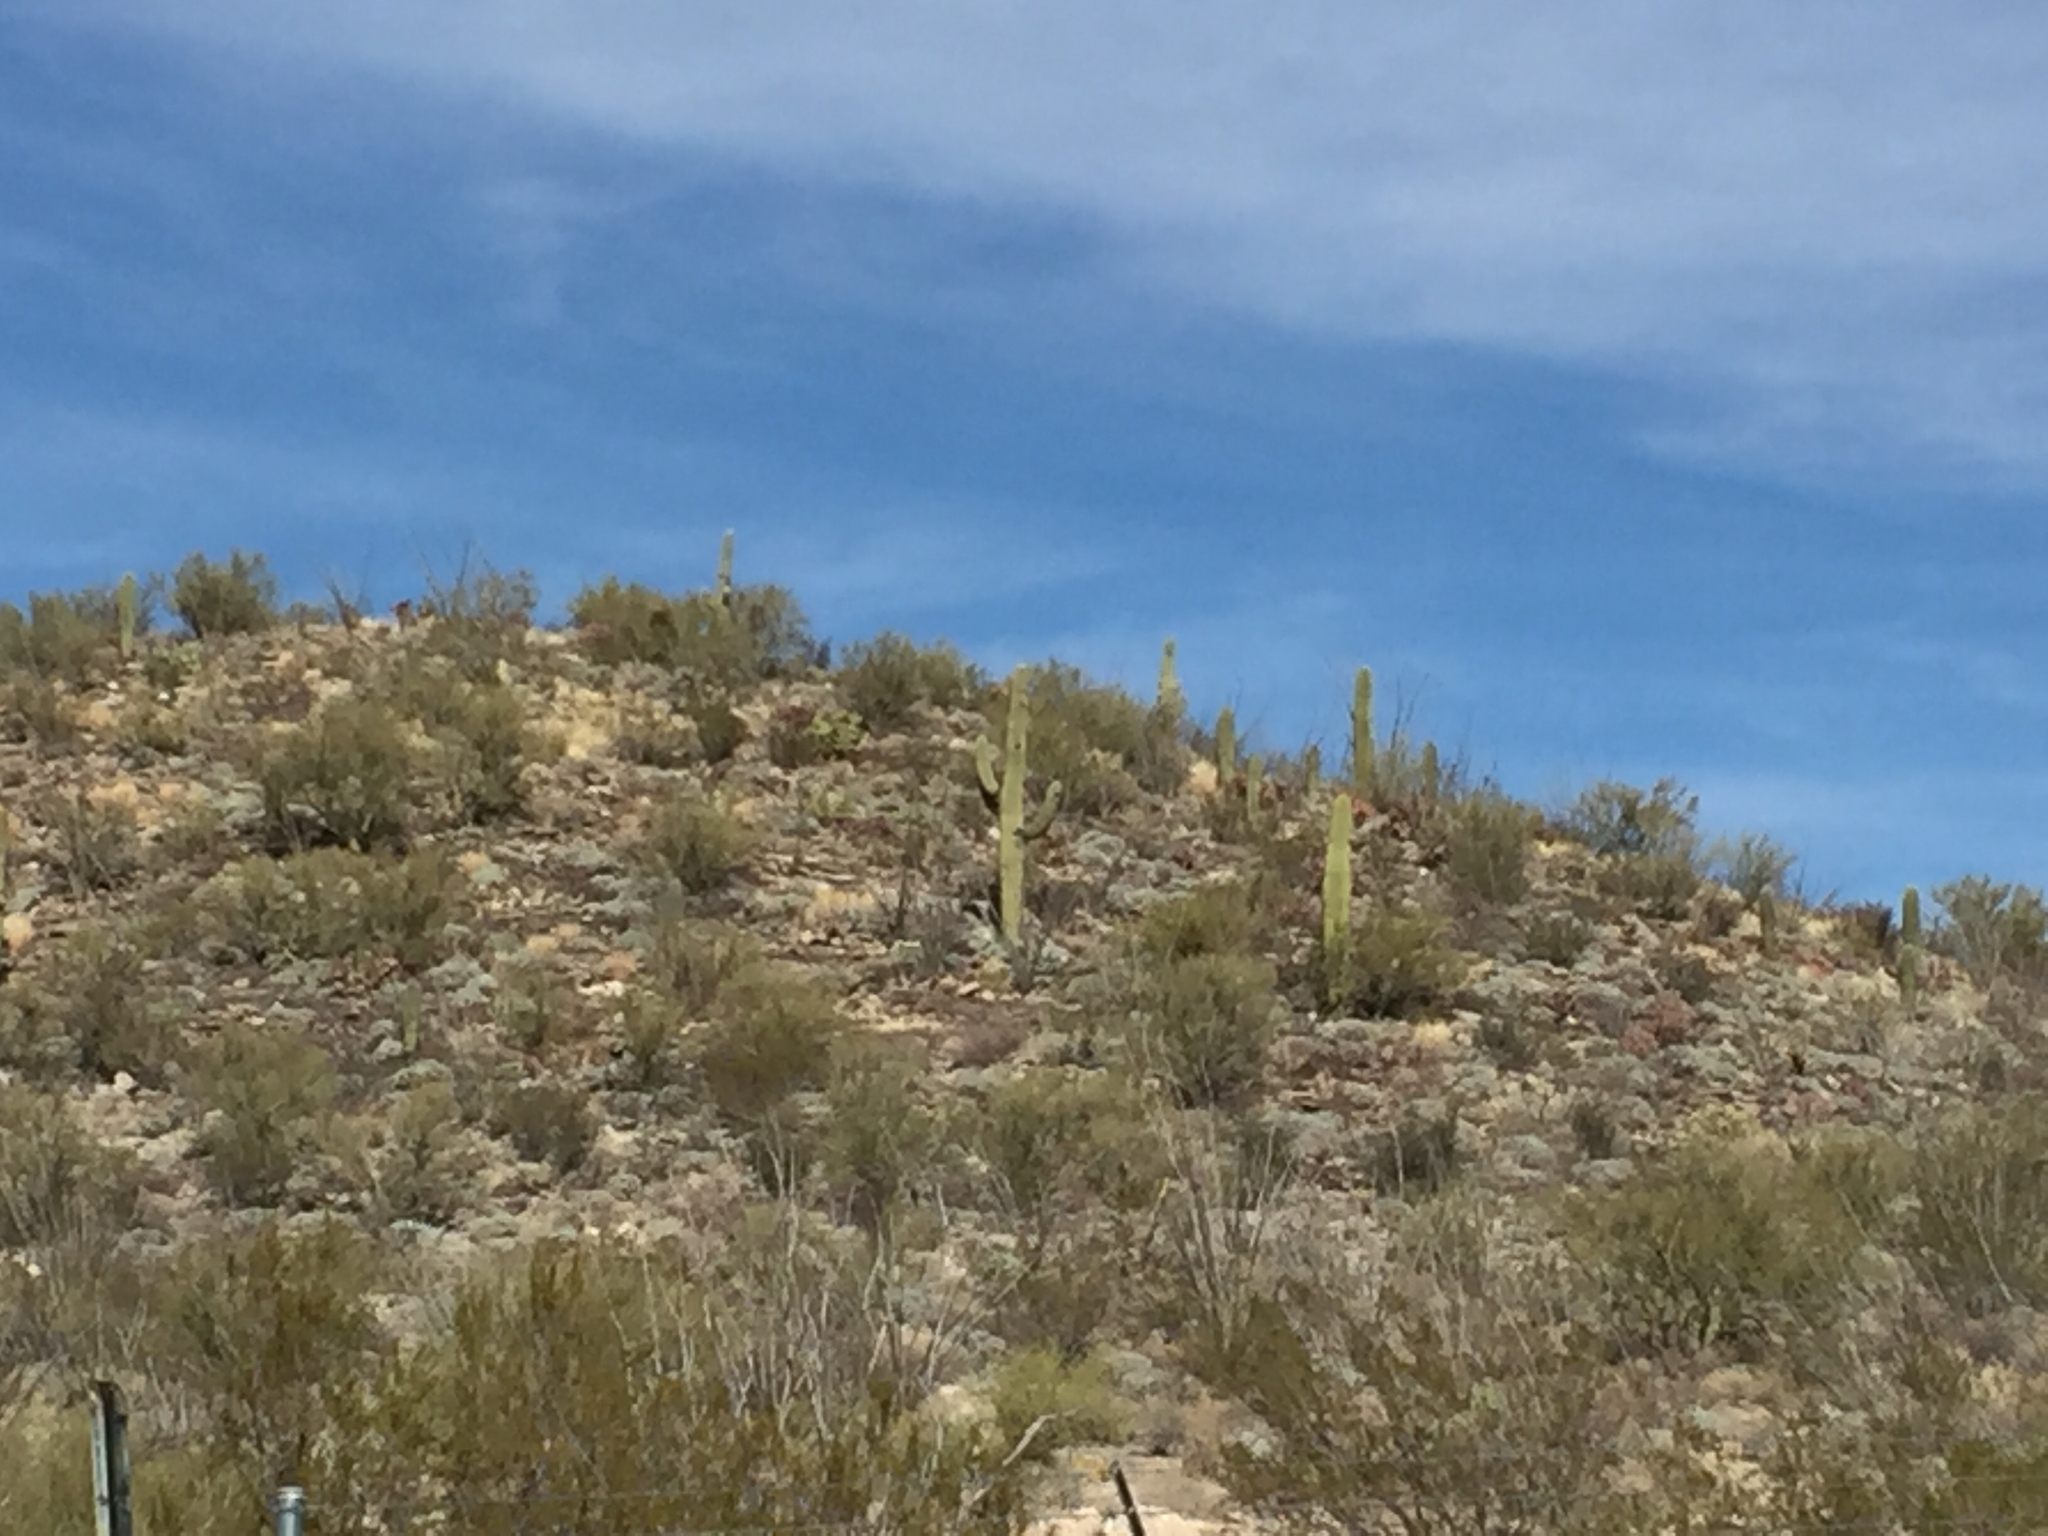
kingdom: Plantae
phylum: Tracheophyta
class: Magnoliopsida
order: Caryophyllales
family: Cactaceae
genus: Carnegiea
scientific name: Carnegiea gigantea
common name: Saguaro
